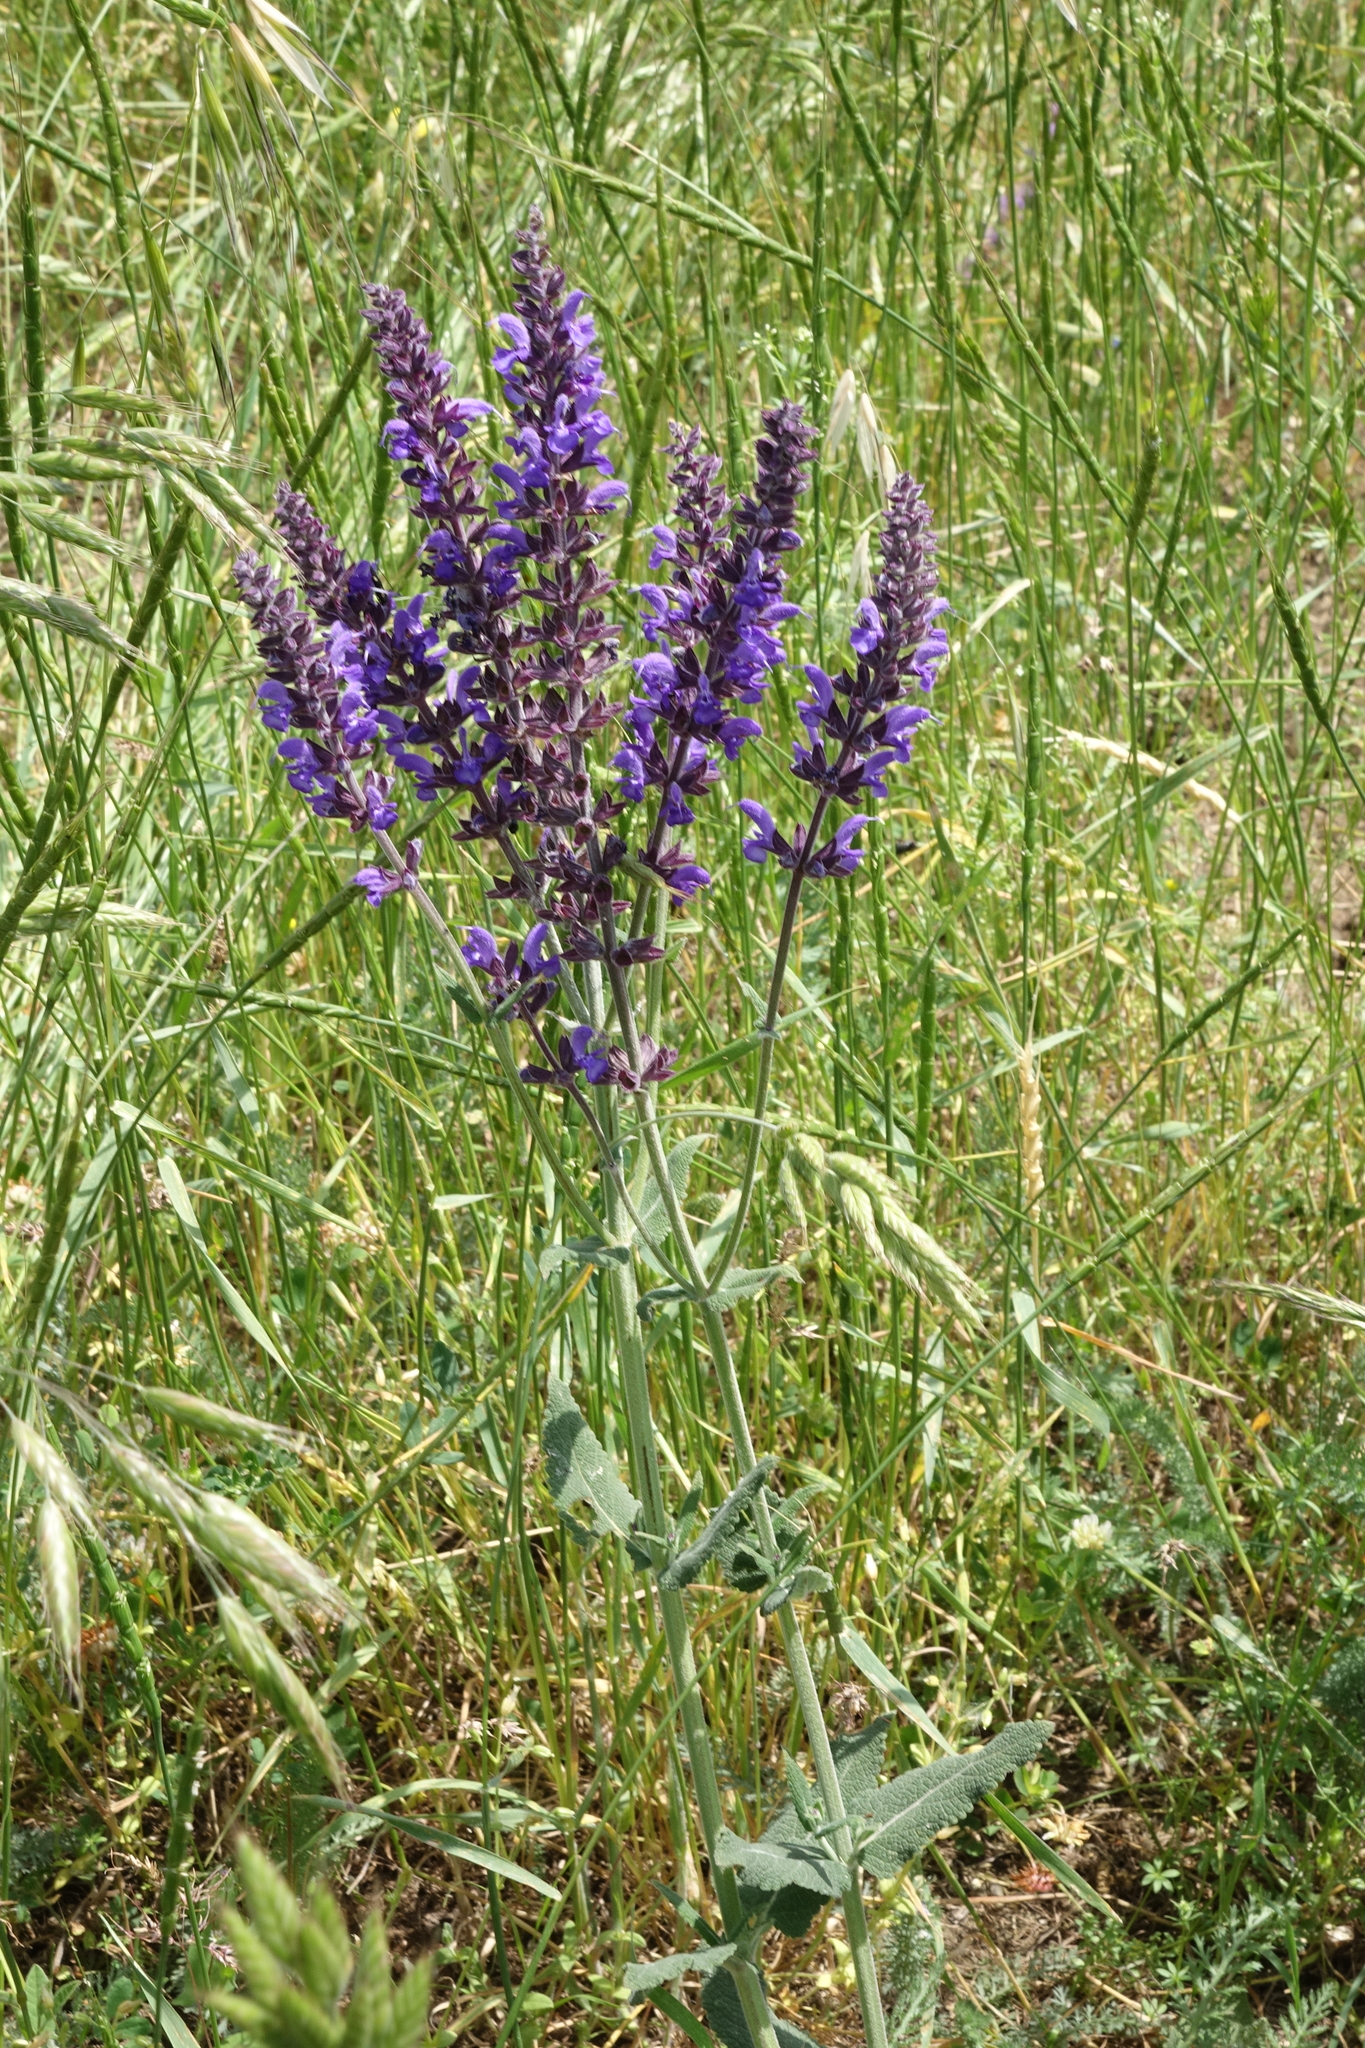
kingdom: Plantae
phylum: Tracheophyta
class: Magnoliopsida
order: Lamiales
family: Lamiaceae
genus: Salvia
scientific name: Salvia nemorosa
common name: Balkan clary
